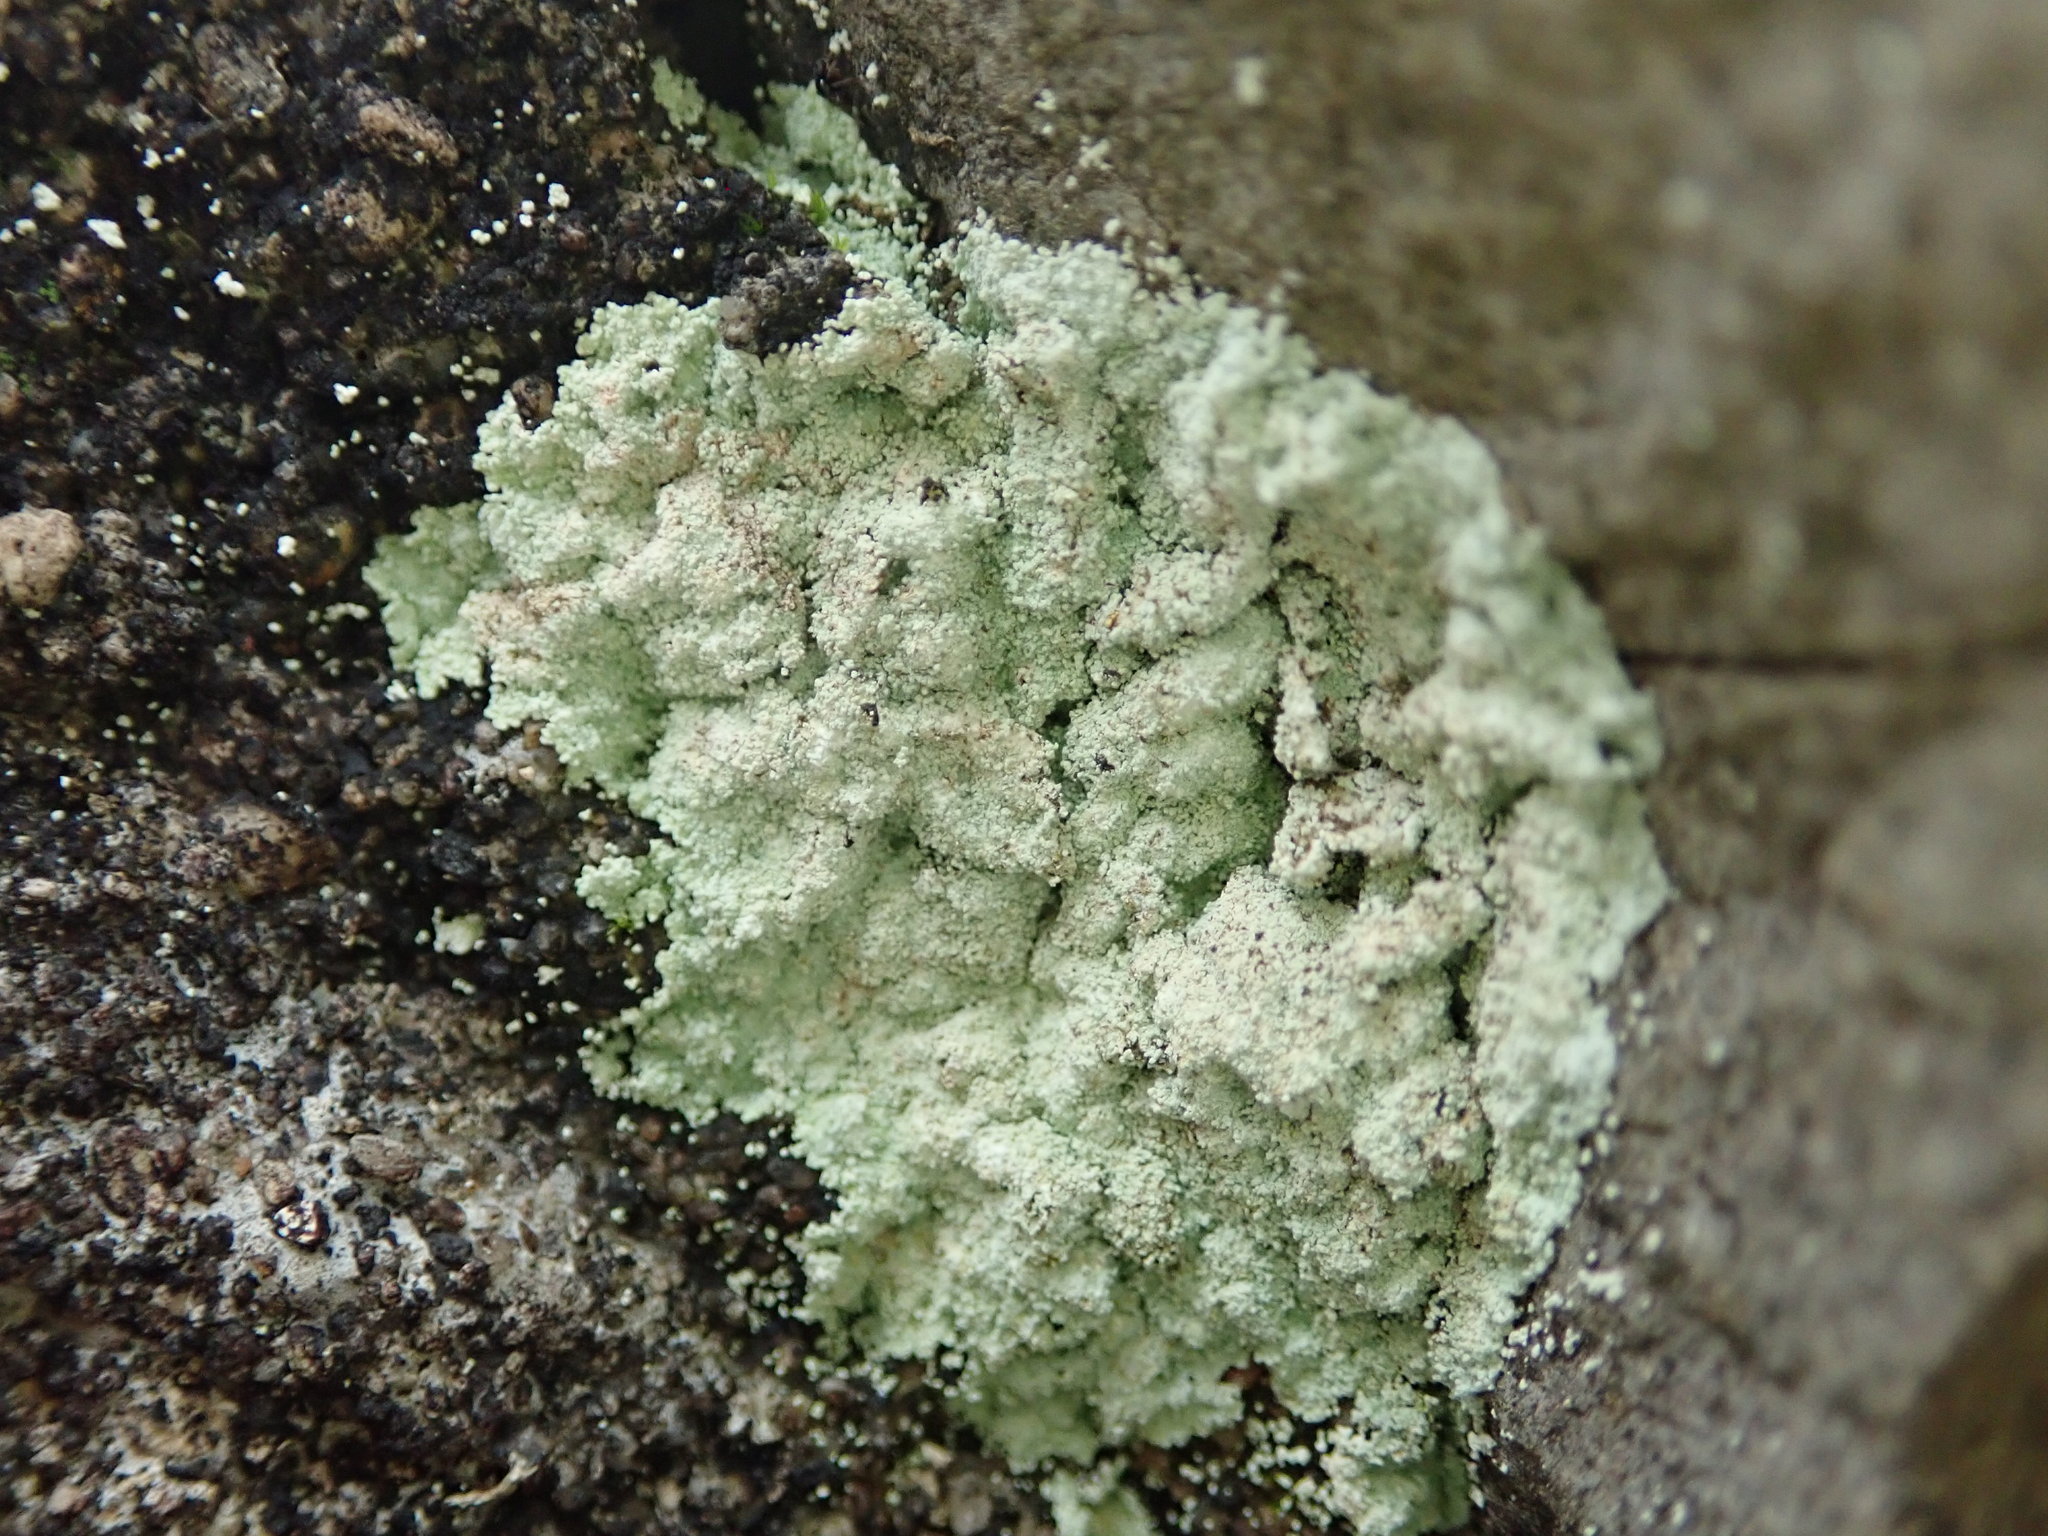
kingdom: Fungi
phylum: Ascomycota
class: Lecanoromycetes
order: Lecanorales
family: Stereocaulaceae
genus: Lepraria
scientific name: Lepraria lobificans
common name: Fluffy dust lichen
